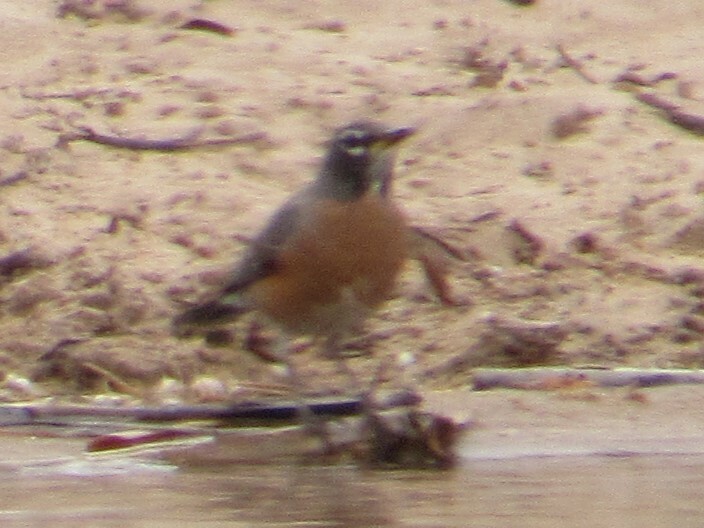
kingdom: Animalia
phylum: Chordata
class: Aves
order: Passeriformes
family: Turdidae
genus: Turdus
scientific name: Turdus migratorius
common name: American robin
